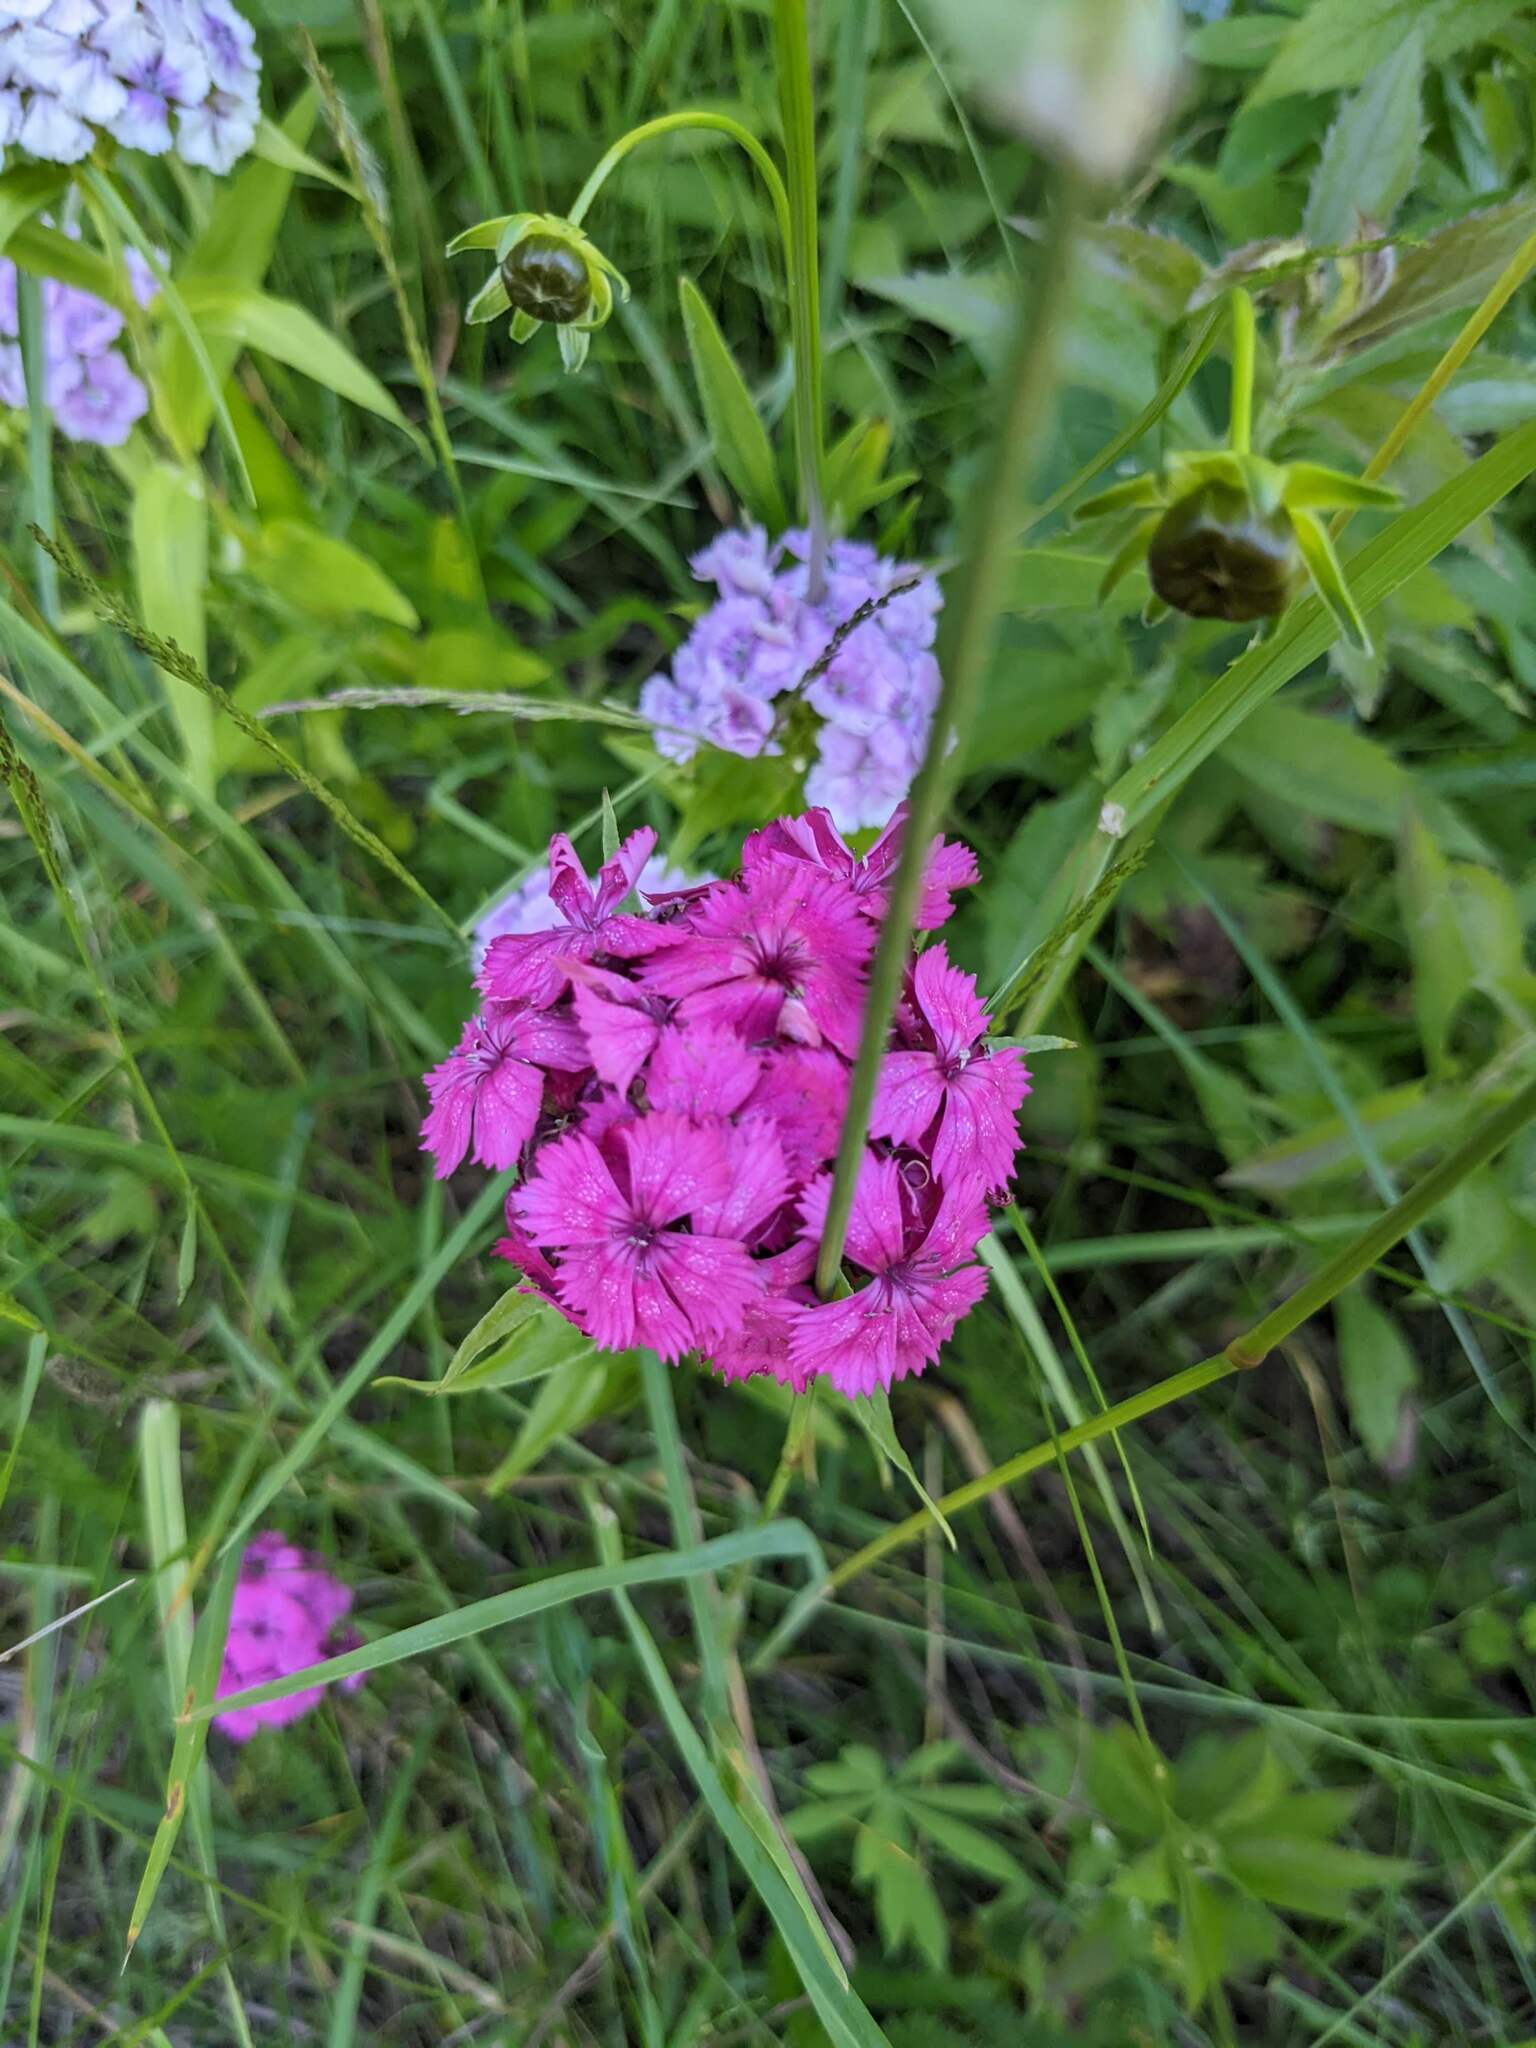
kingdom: Plantae
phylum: Tracheophyta
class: Magnoliopsida
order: Caryophyllales
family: Caryophyllaceae
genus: Dianthus
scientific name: Dianthus barbatus
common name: Sweet-william
